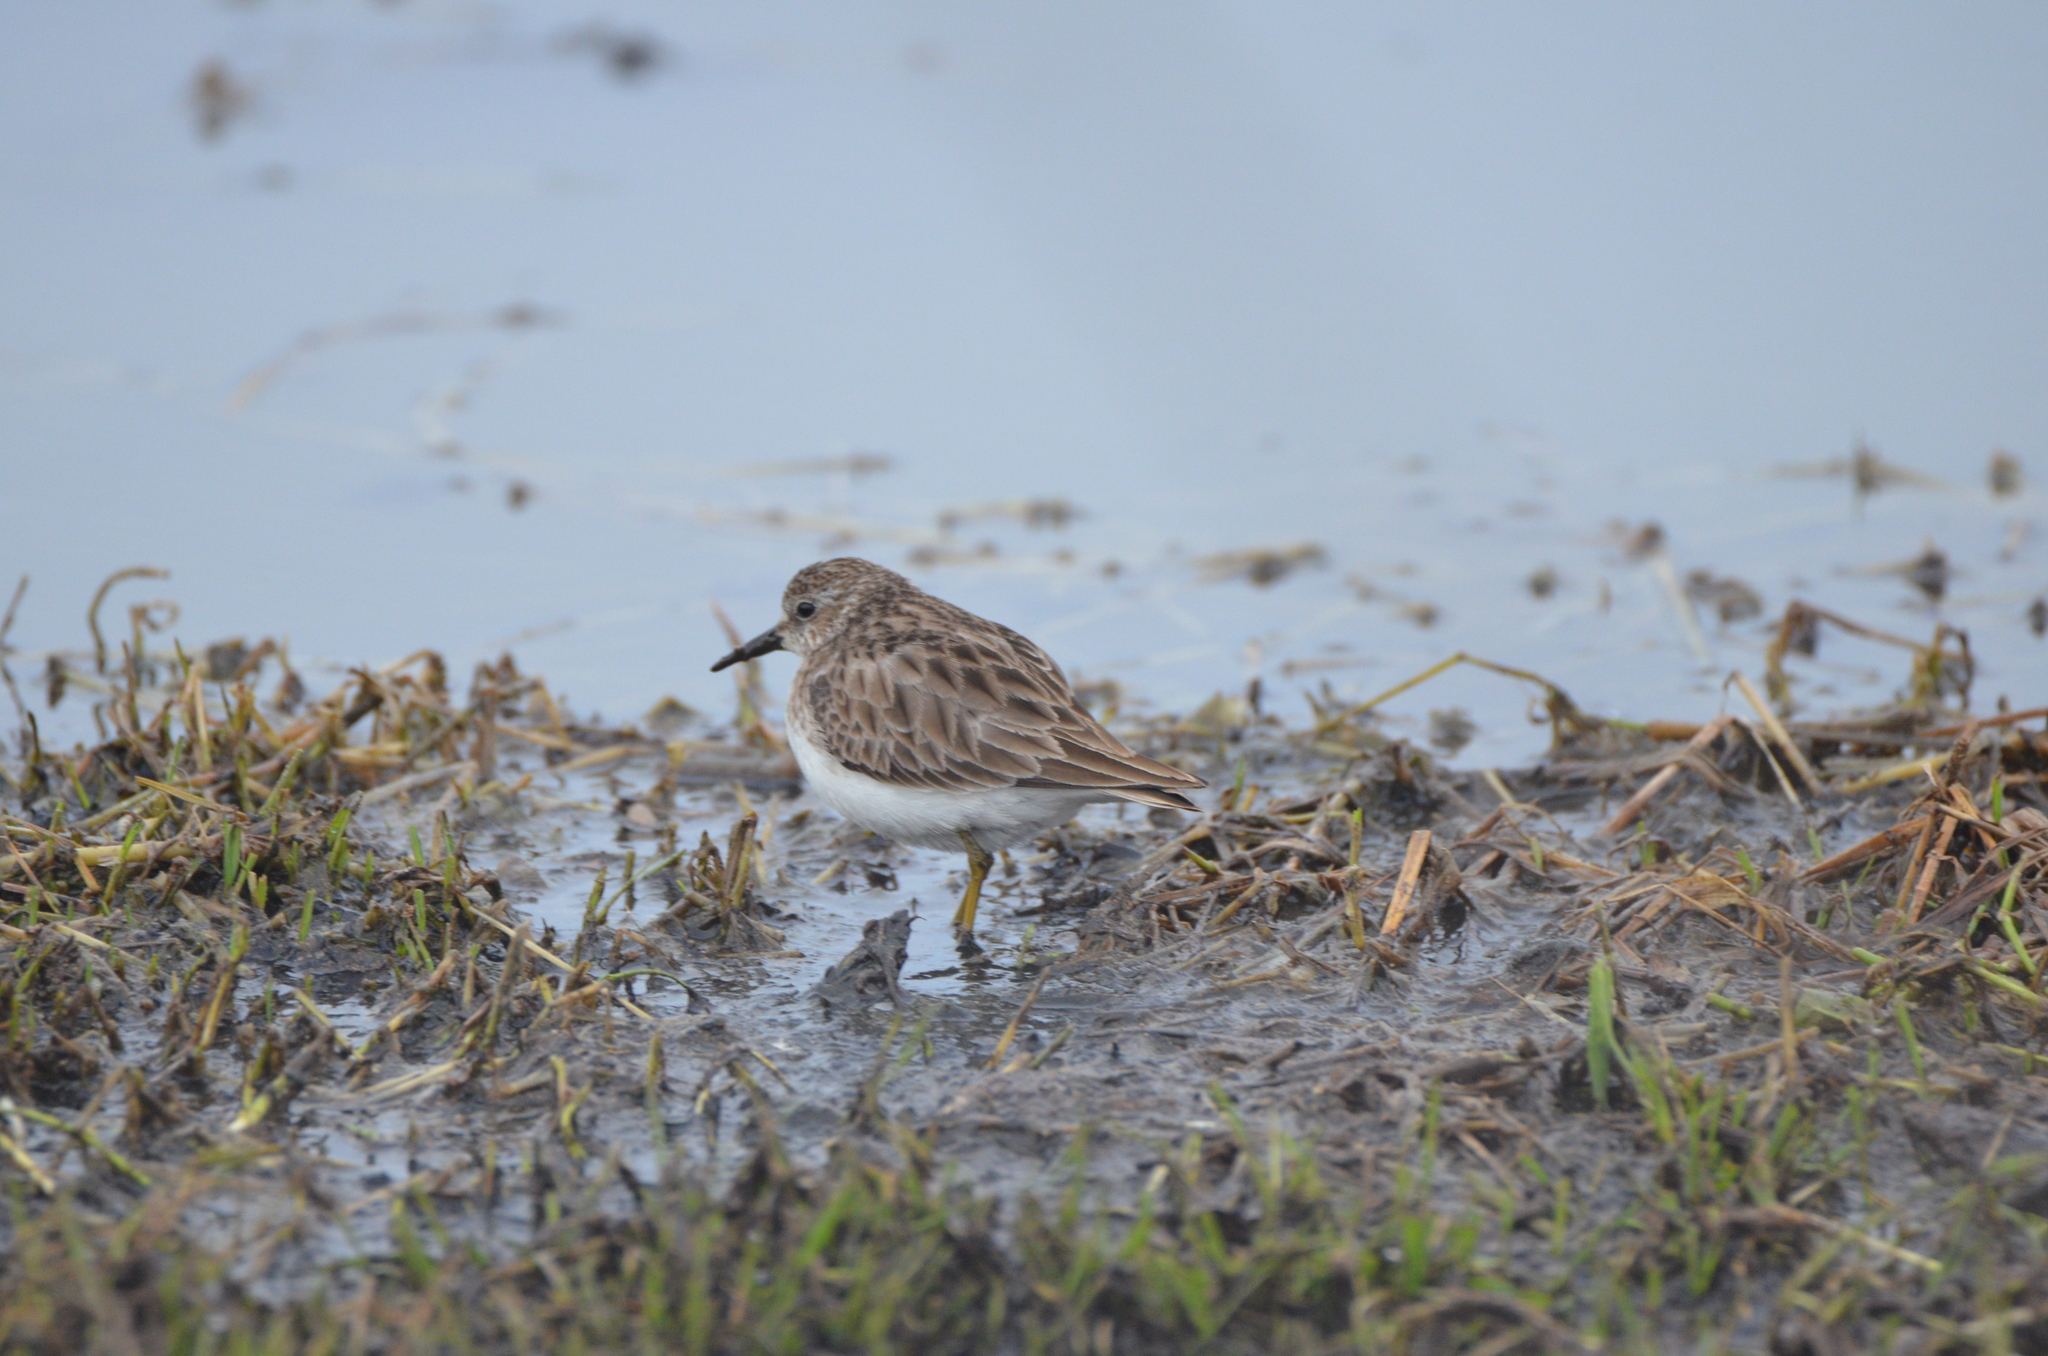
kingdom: Animalia
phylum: Chordata
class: Aves
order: Charadriiformes
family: Scolopacidae
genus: Calidris
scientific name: Calidris minutilla
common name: Least sandpiper
